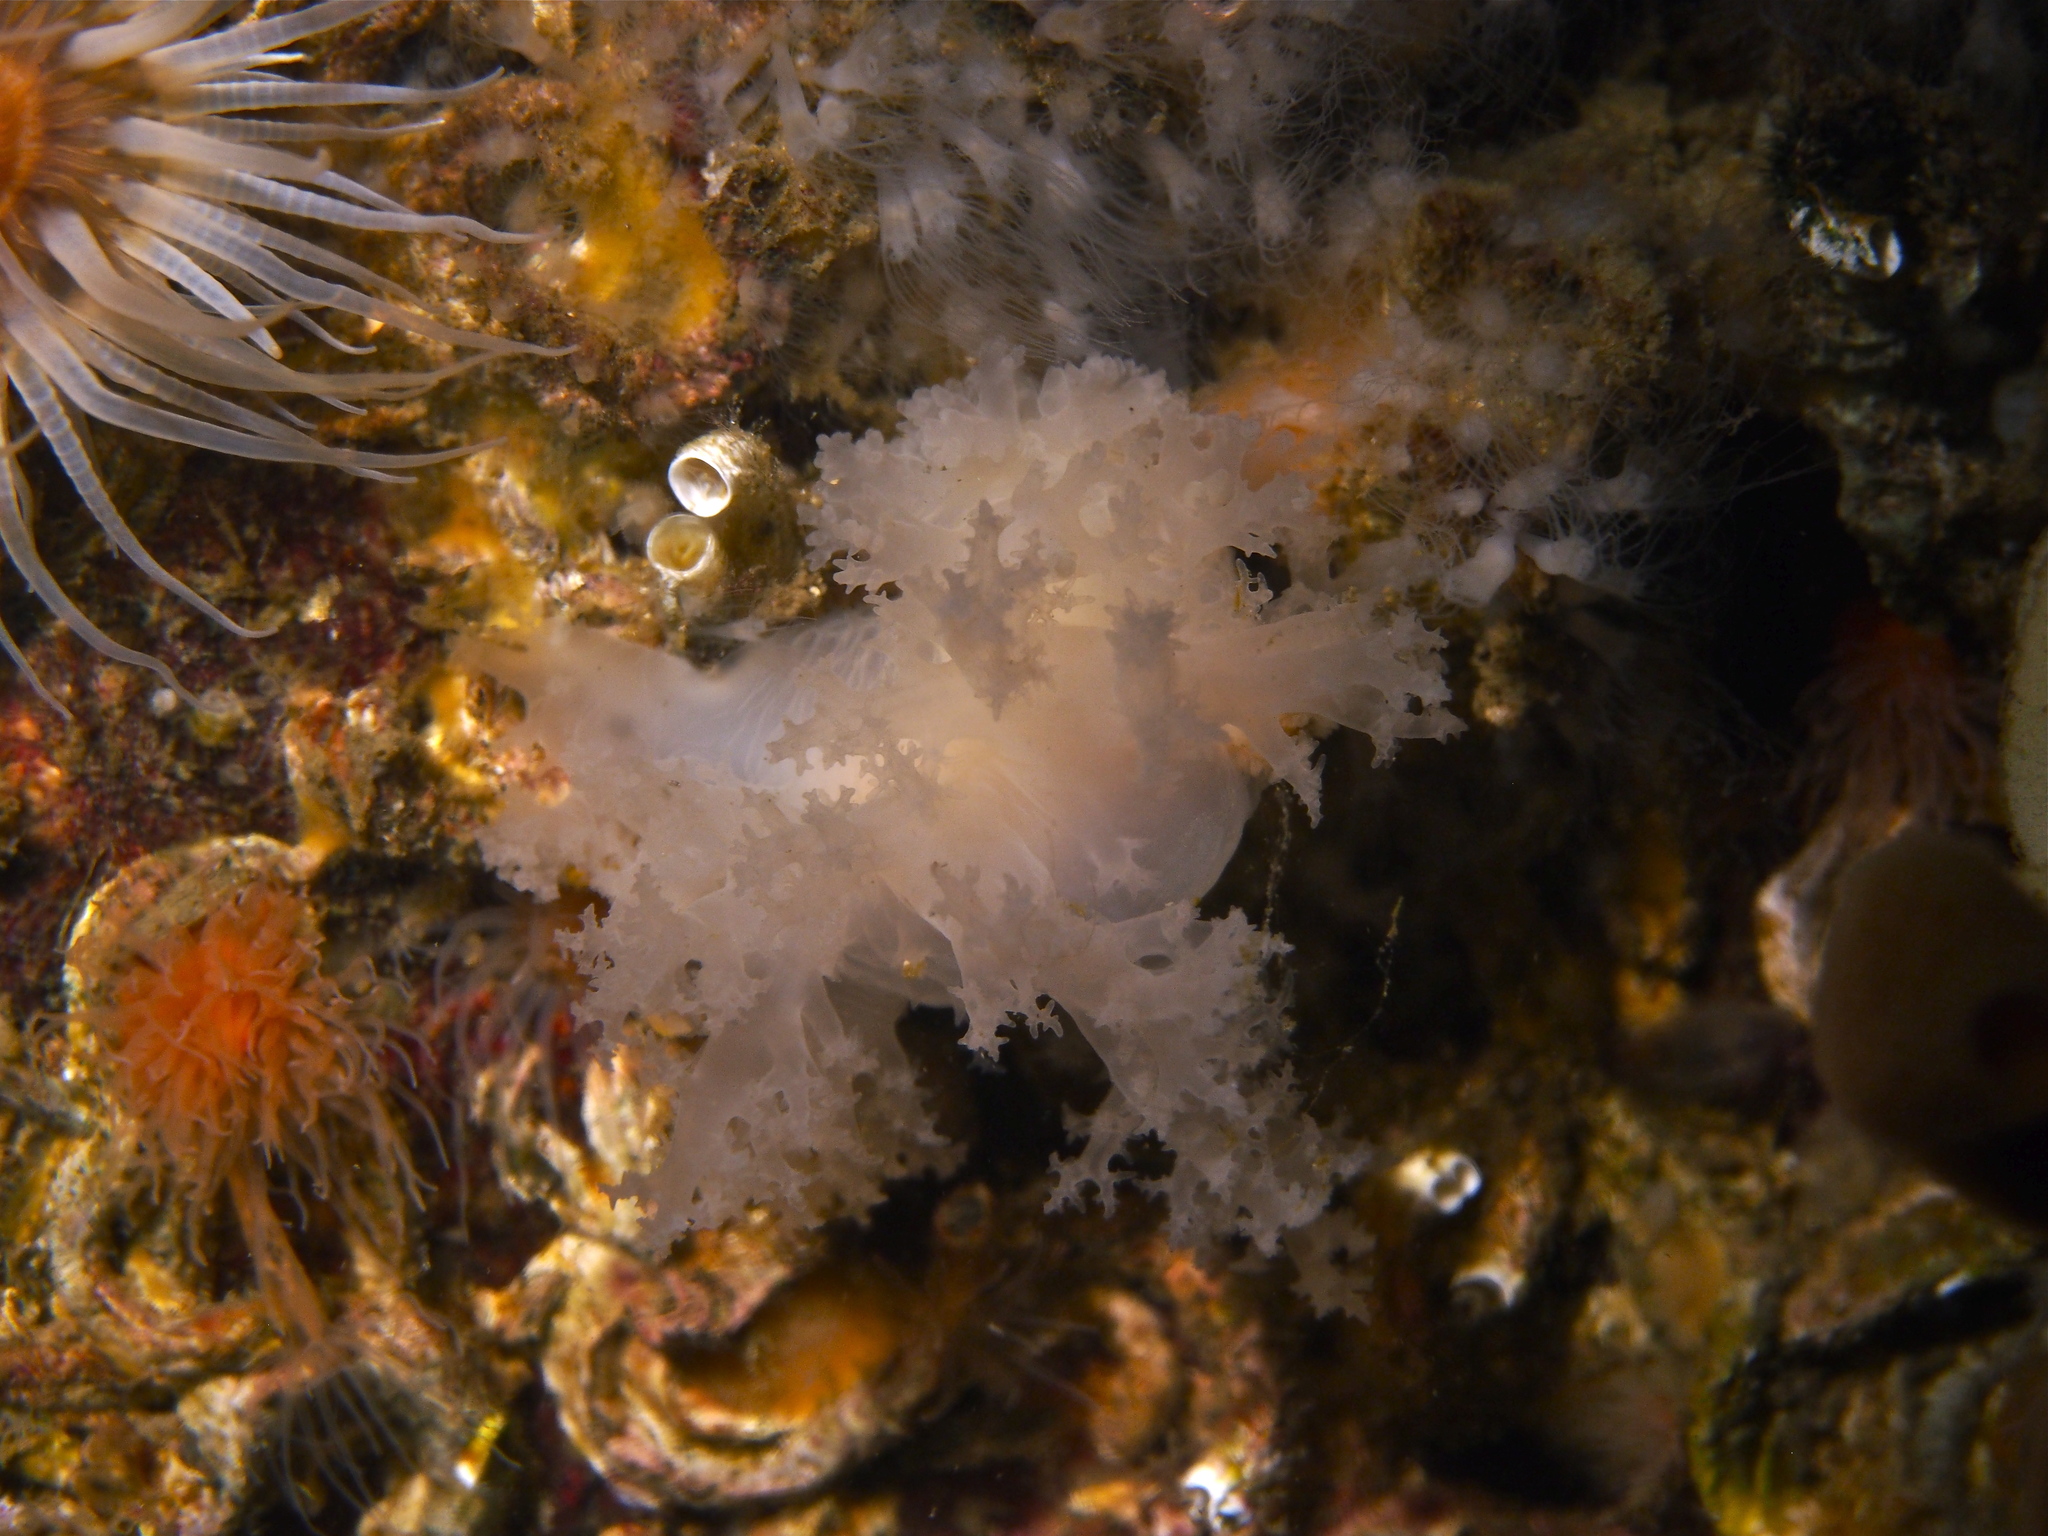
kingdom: Animalia
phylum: Mollusca
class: Gastropoda
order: Nudibranchia
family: Dendronotidae
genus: Dendronotus
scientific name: Dendronotus lacteus
